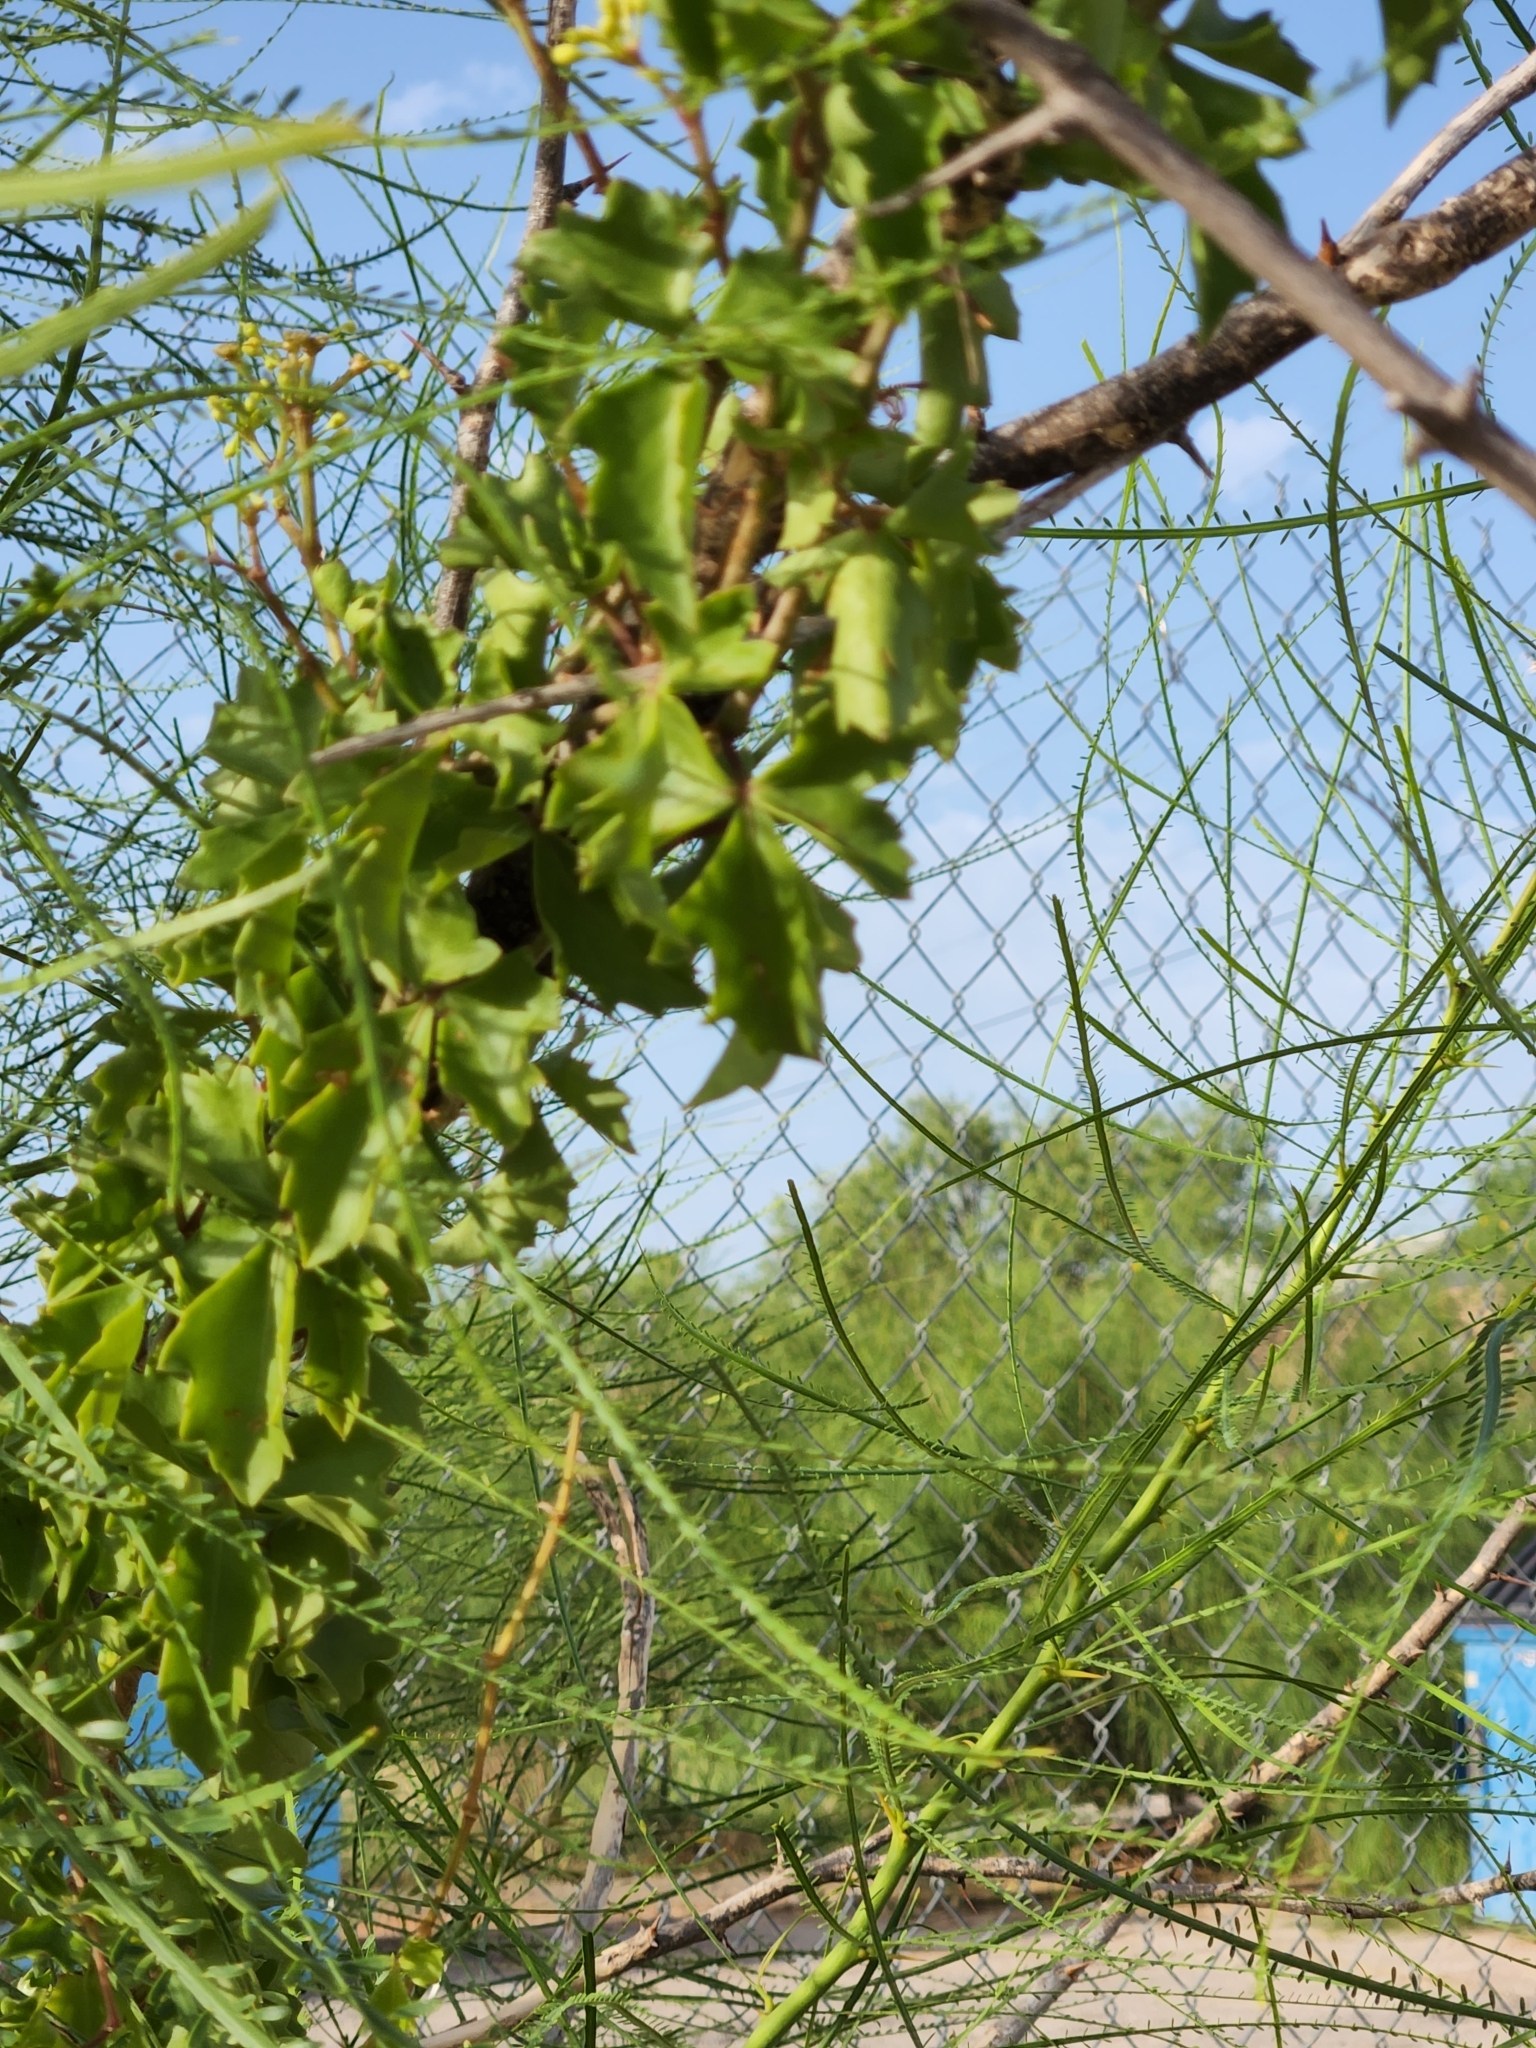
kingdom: Plantae
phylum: Tracheophyta
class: Magnoliopsida
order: Vitales
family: Vitaceae
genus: Cissus
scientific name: Cissus trifoliata
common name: Vine-sorrel
